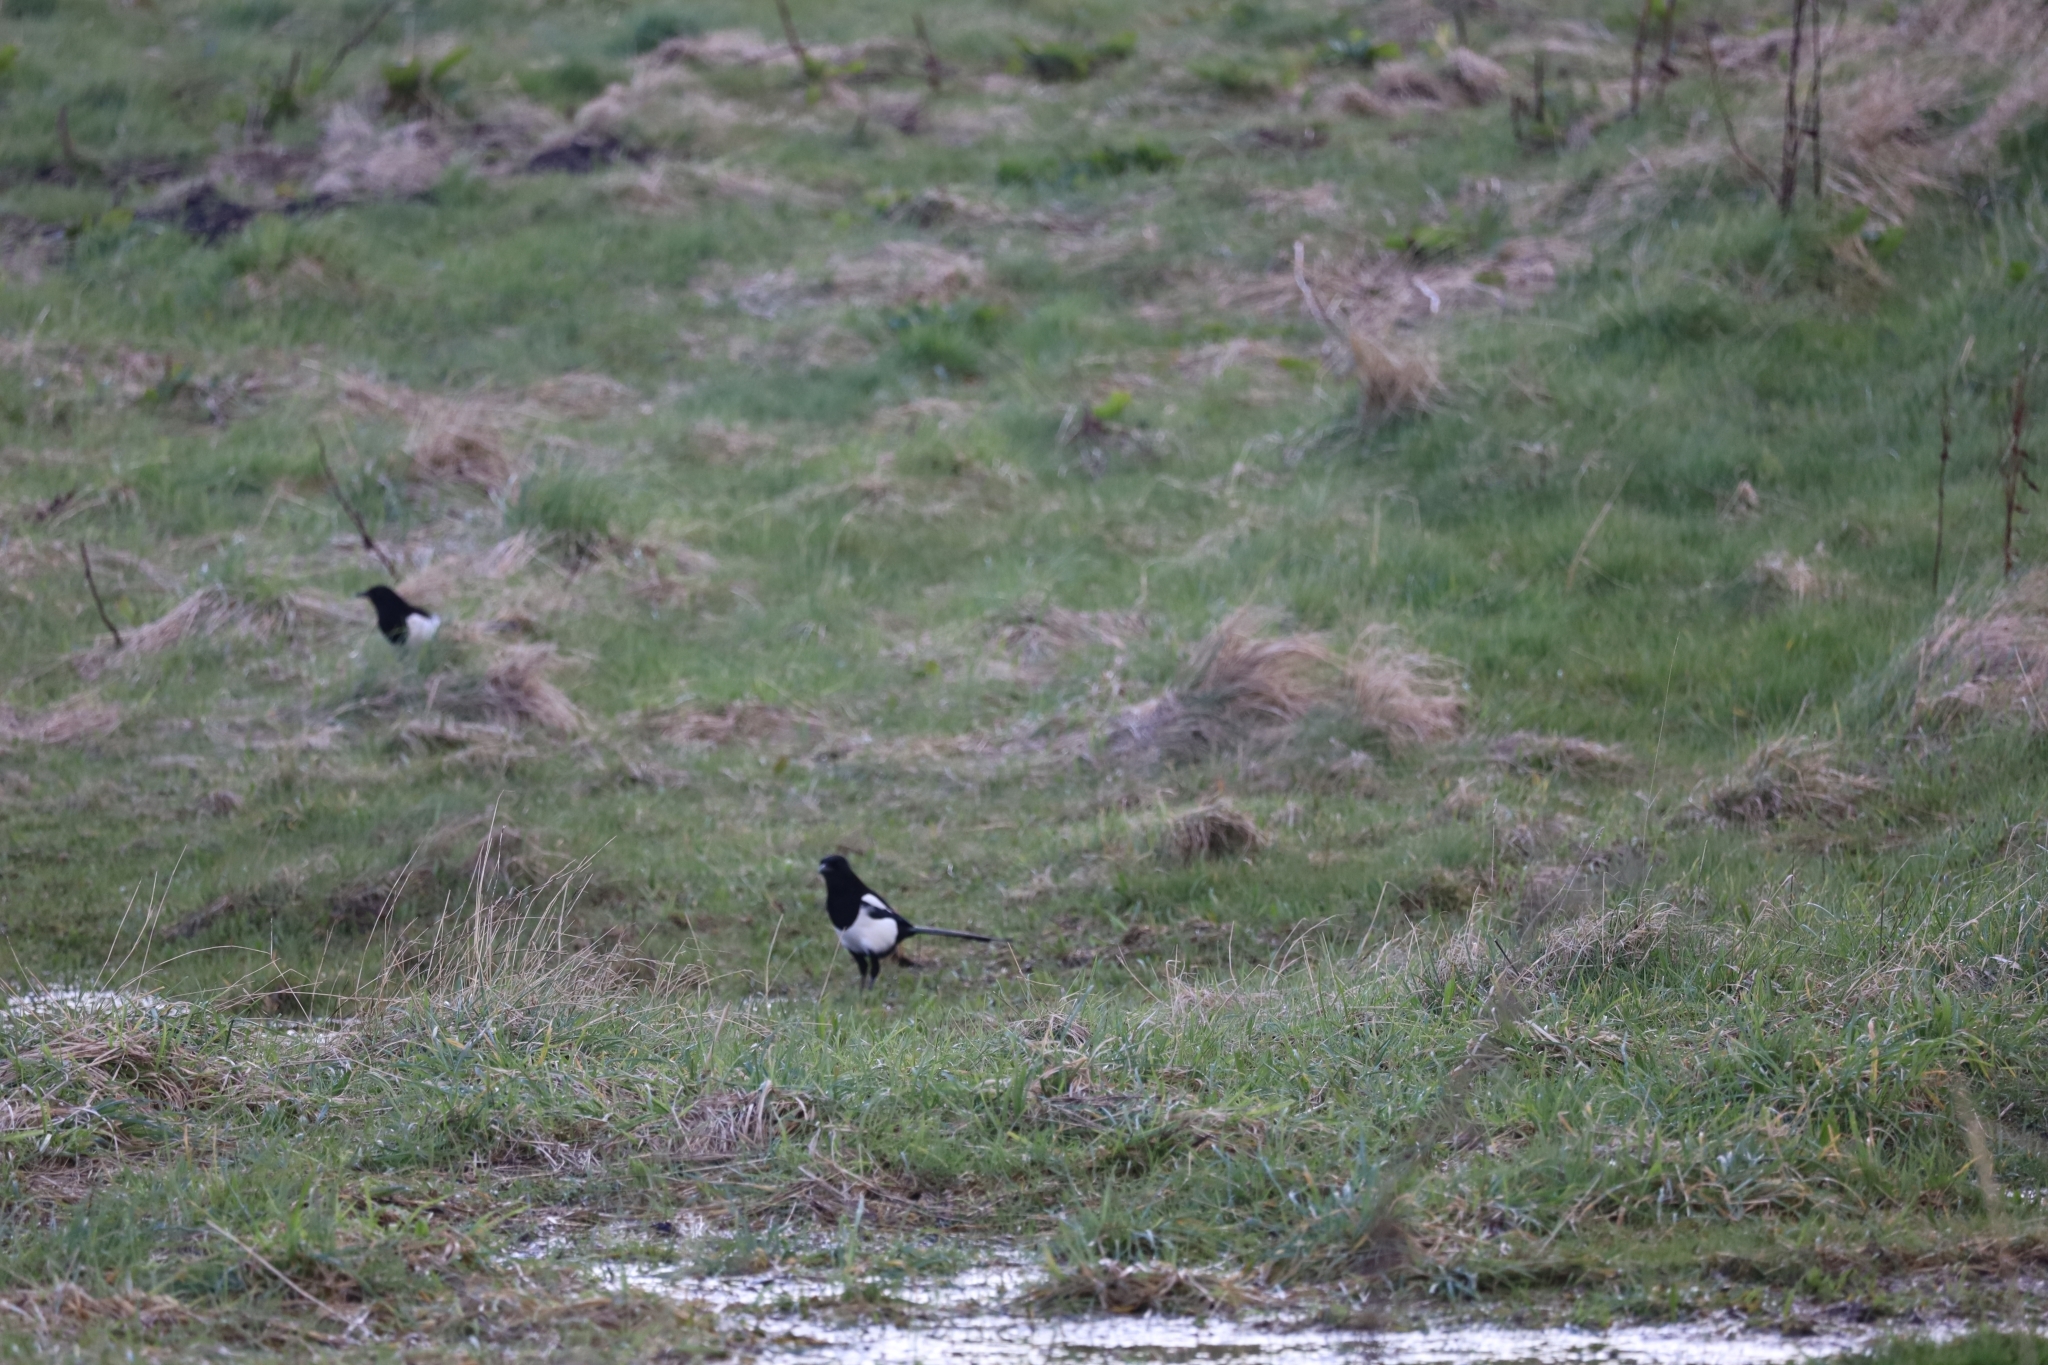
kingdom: Animalia
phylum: Chordata
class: Aves
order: Passeriformes
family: Corvidae
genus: Pica
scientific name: Pica pica
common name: Eurasian magpie
